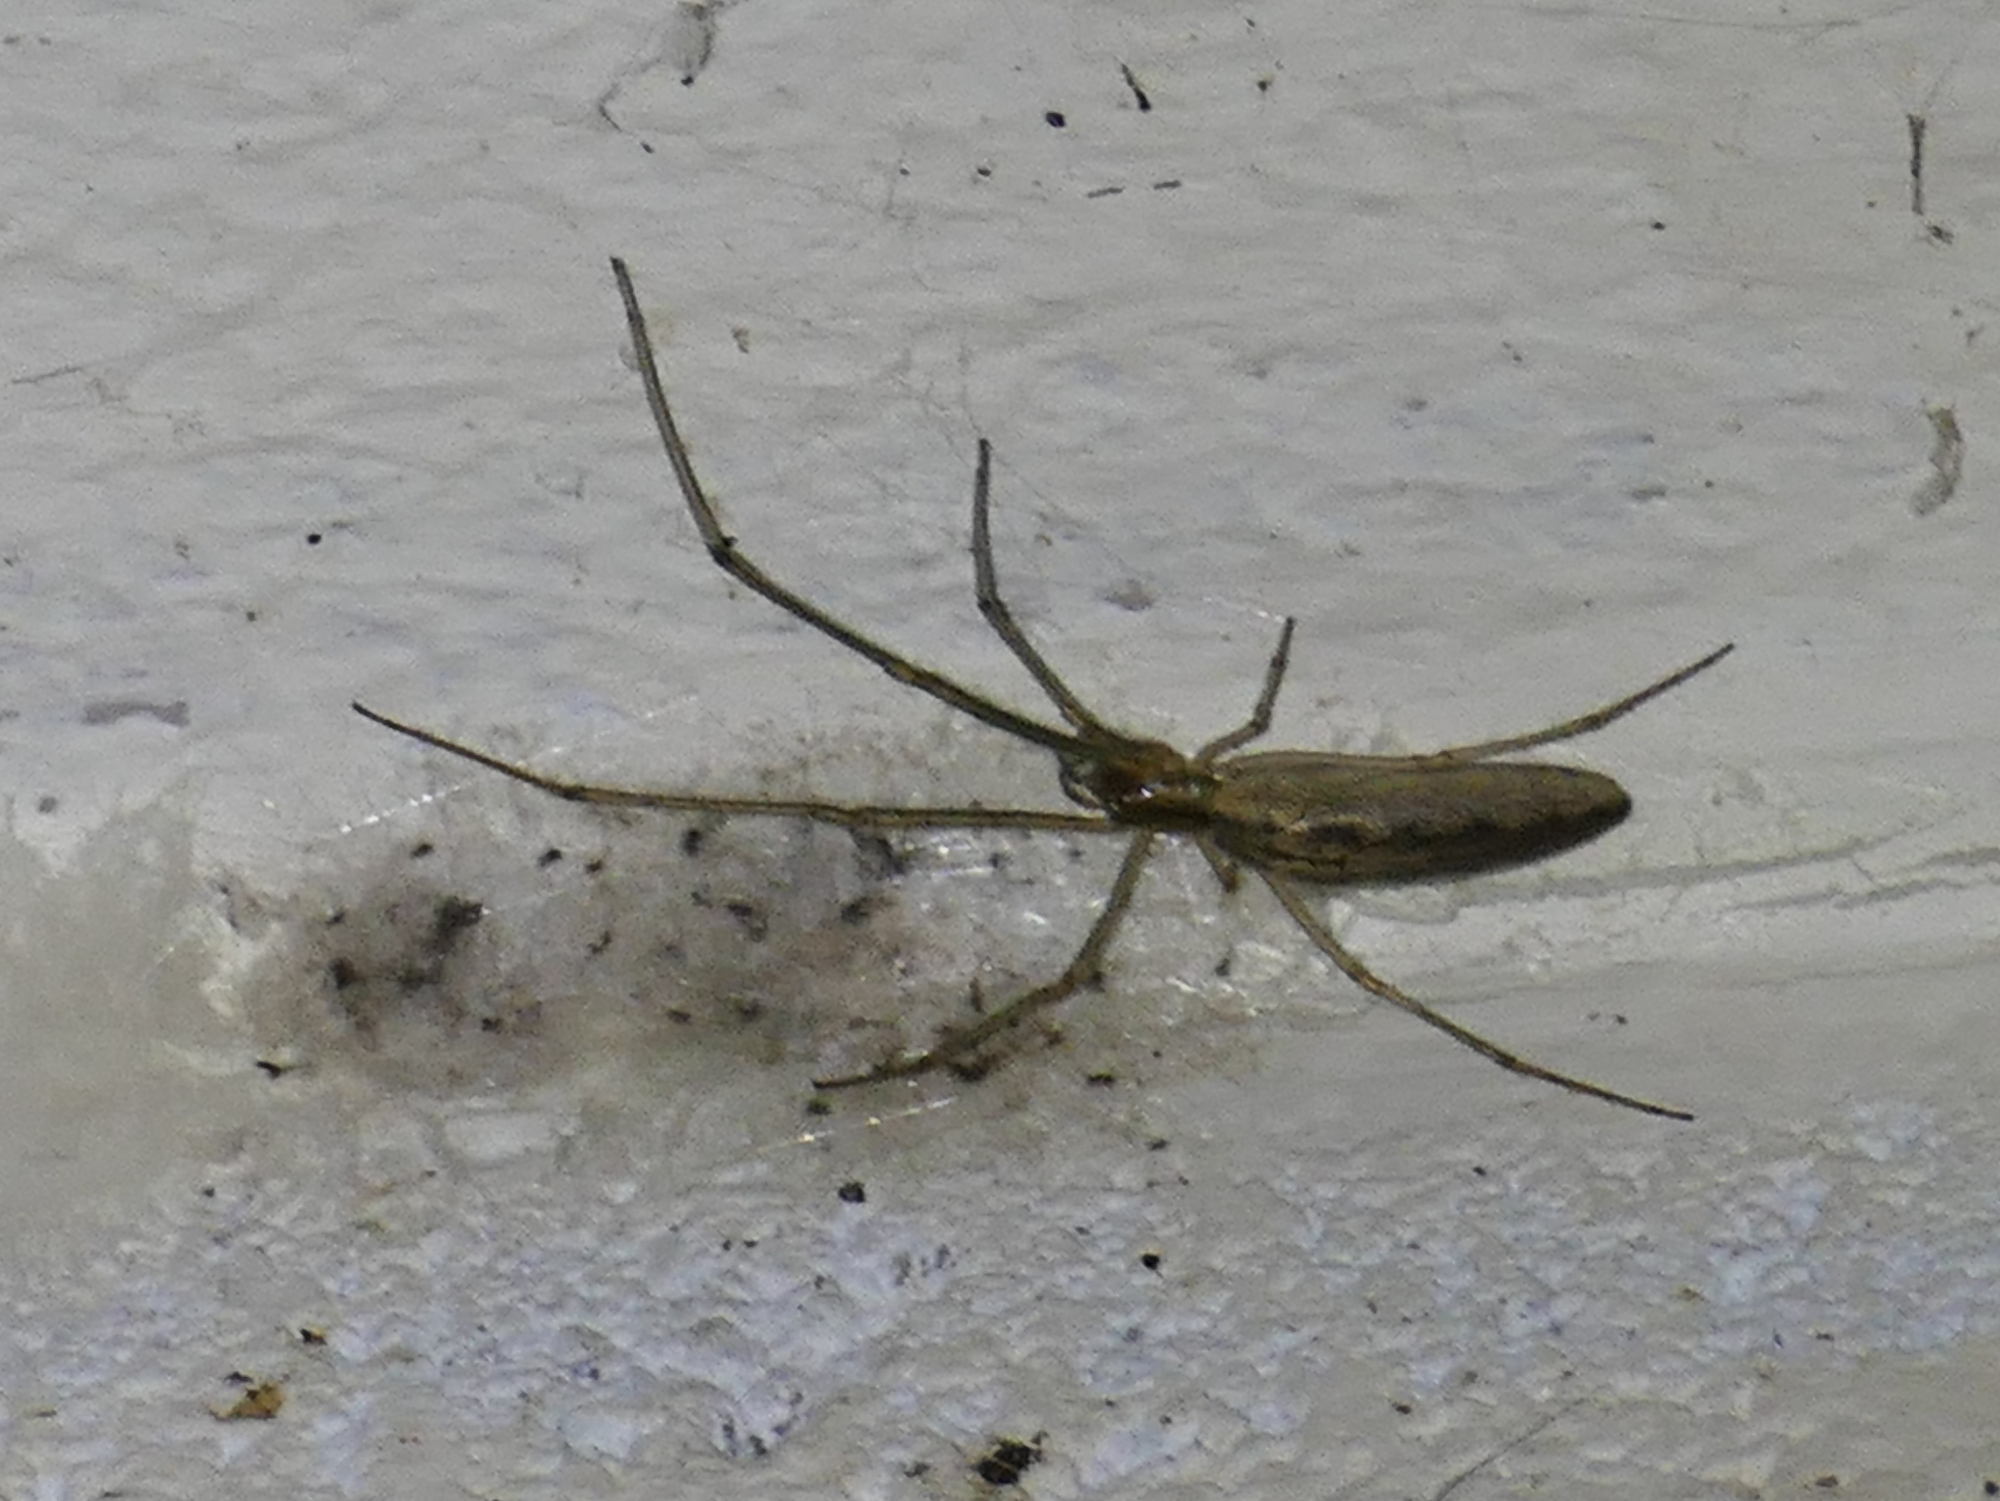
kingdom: Animalia
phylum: Arthropoda
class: Arachnida
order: Araneae
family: Tetragnathidae
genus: Tetragnatha
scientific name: Tetragnatha
